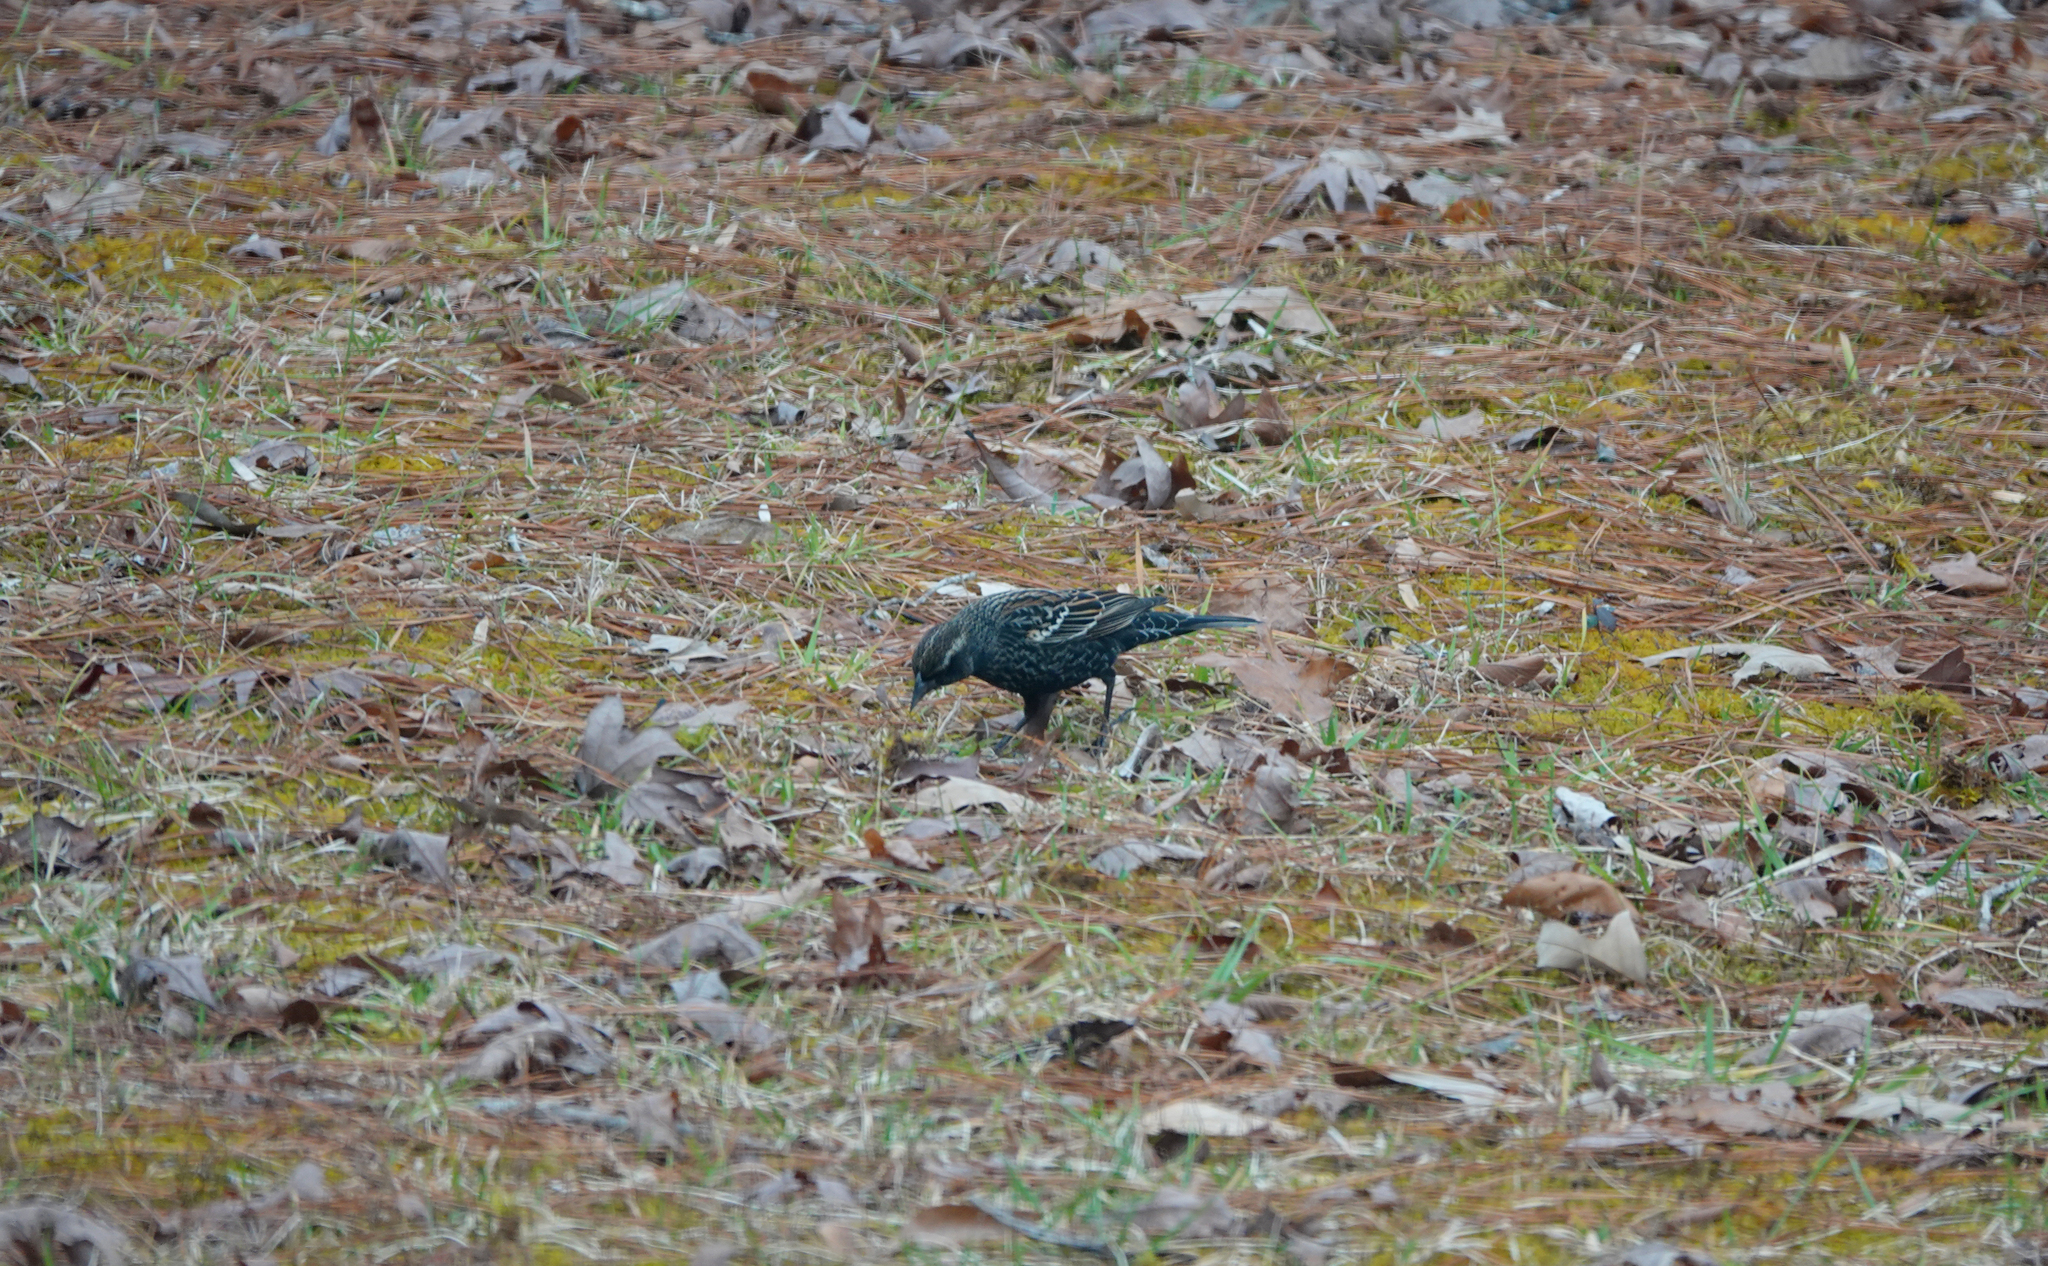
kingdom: Animalia
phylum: Chordata
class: Aves
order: Passeriformes
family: Icteridae
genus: Agelaius
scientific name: Agelaius phoeniceus
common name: Red-winged blackbird
